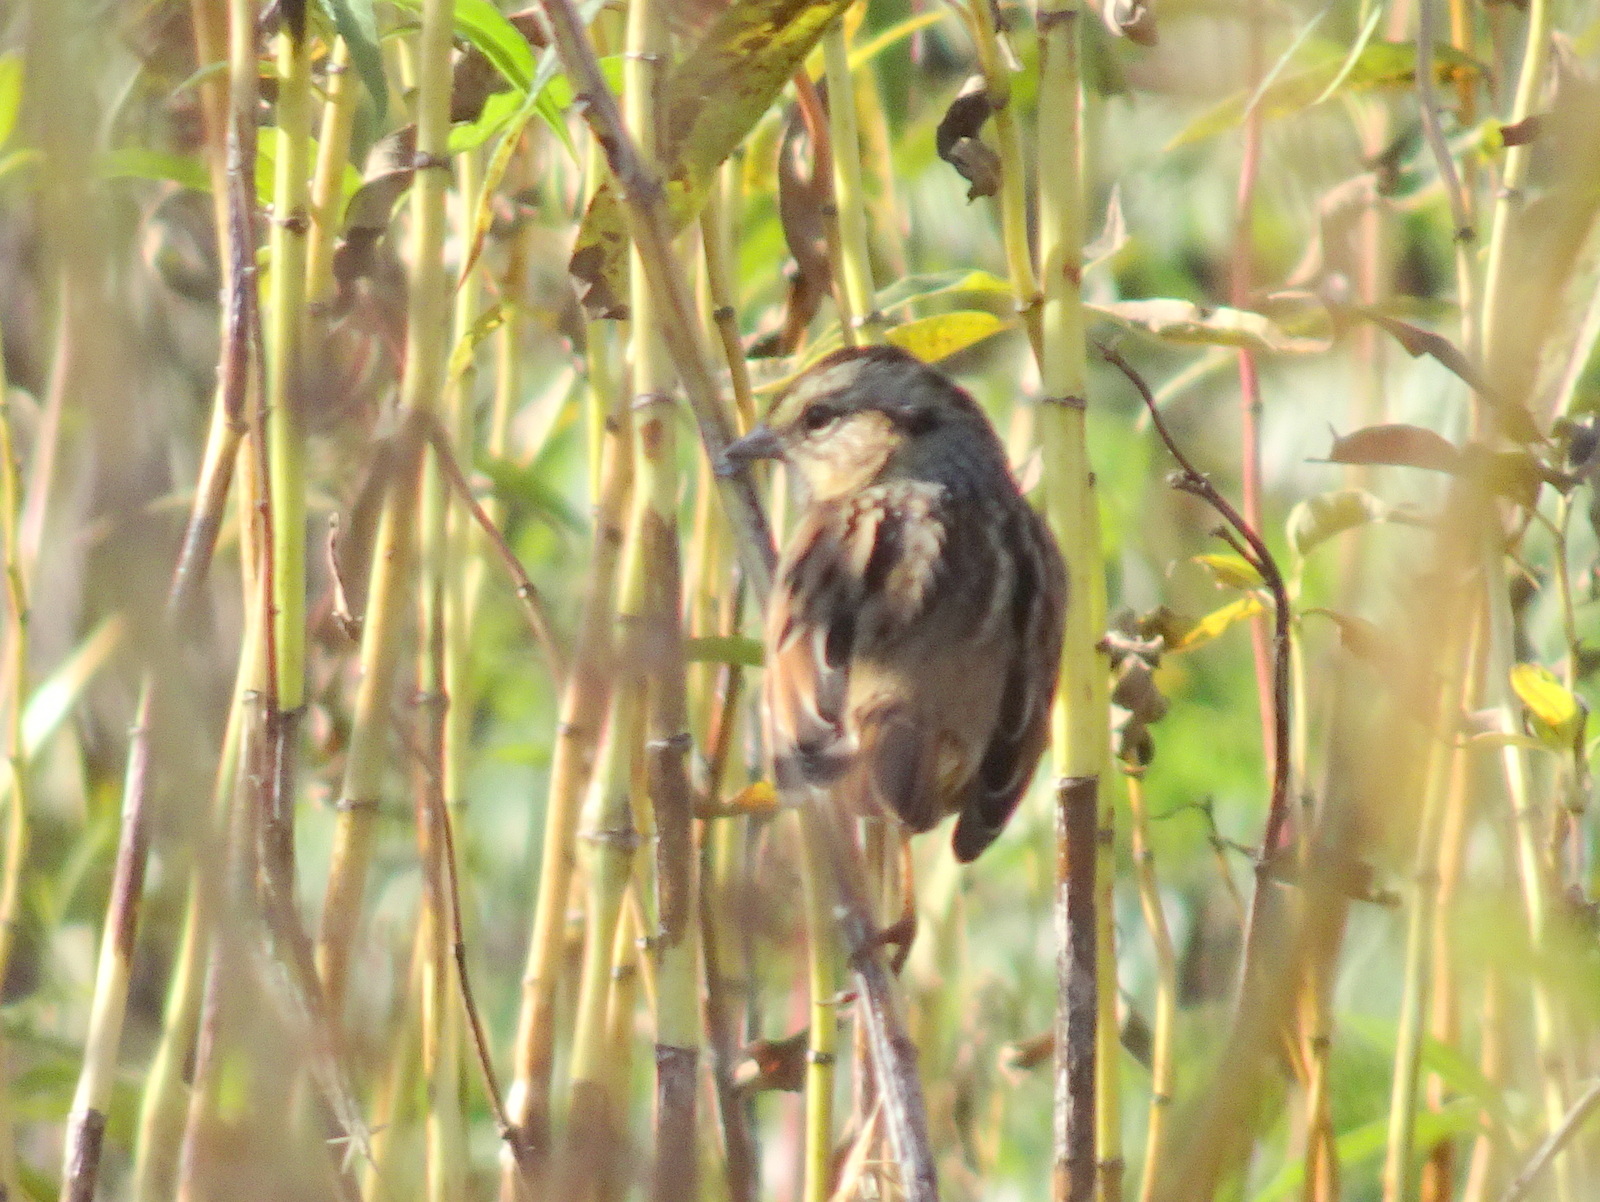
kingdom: Animalia
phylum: Chordata
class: Aves
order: Passeriformes
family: Passerellidae
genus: Melospiza
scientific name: Melospiza georgiana
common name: Swamp sparrow
